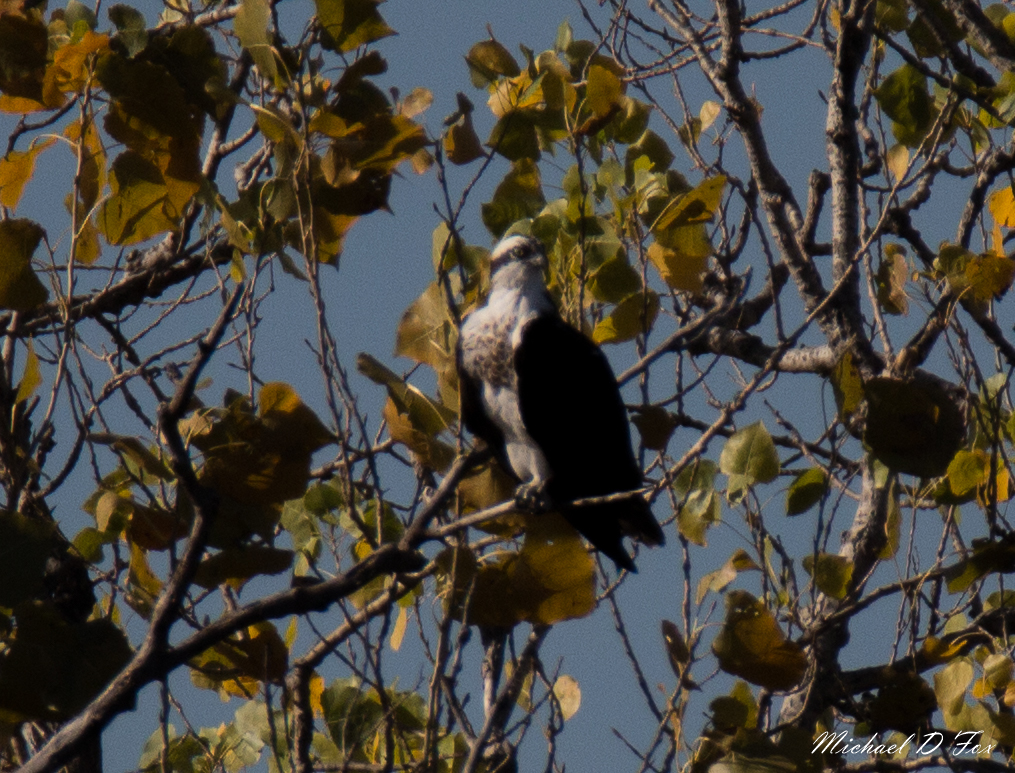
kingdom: Animalia
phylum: Chordata
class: Aves
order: Accipitriformes
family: Pandionidae
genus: Pandion
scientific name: Pandion haliaetus
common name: Osprey
